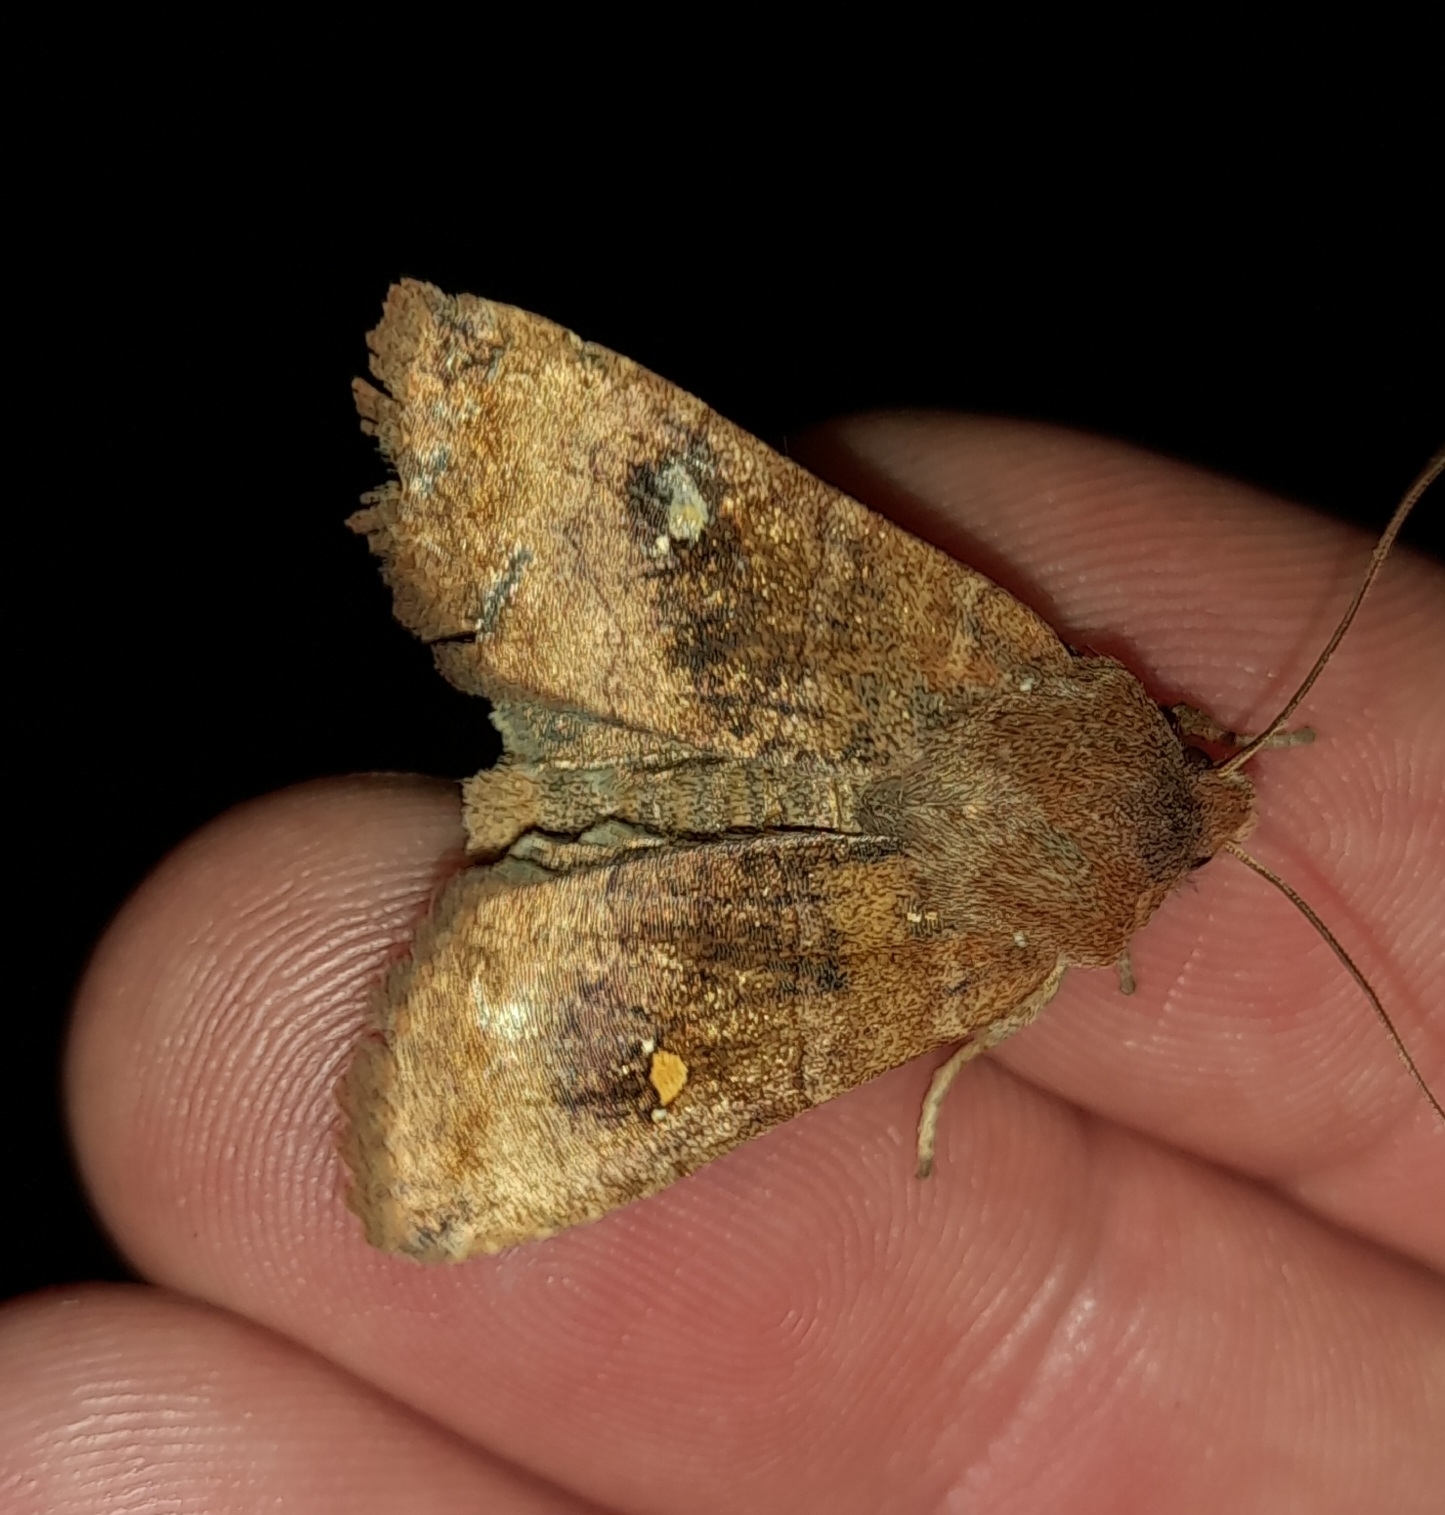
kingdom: Animalia
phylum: Arthropoda
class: Insecta
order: Lepidoptera
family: Noctuidae
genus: Eupsilia
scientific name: Eupsilia transversa
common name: Satellite
